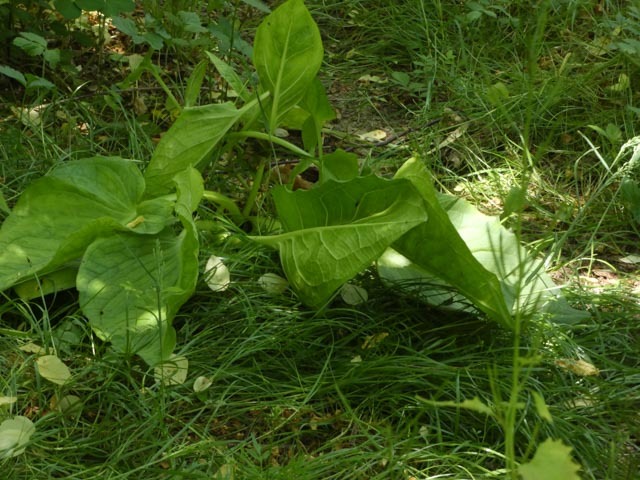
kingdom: Plantae
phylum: Tracheophyta
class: Liliopsida
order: Alismatales
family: Araceae
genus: Symplocarpus
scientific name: Symplocarpus foetidus
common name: Eastern skunk cabbage
